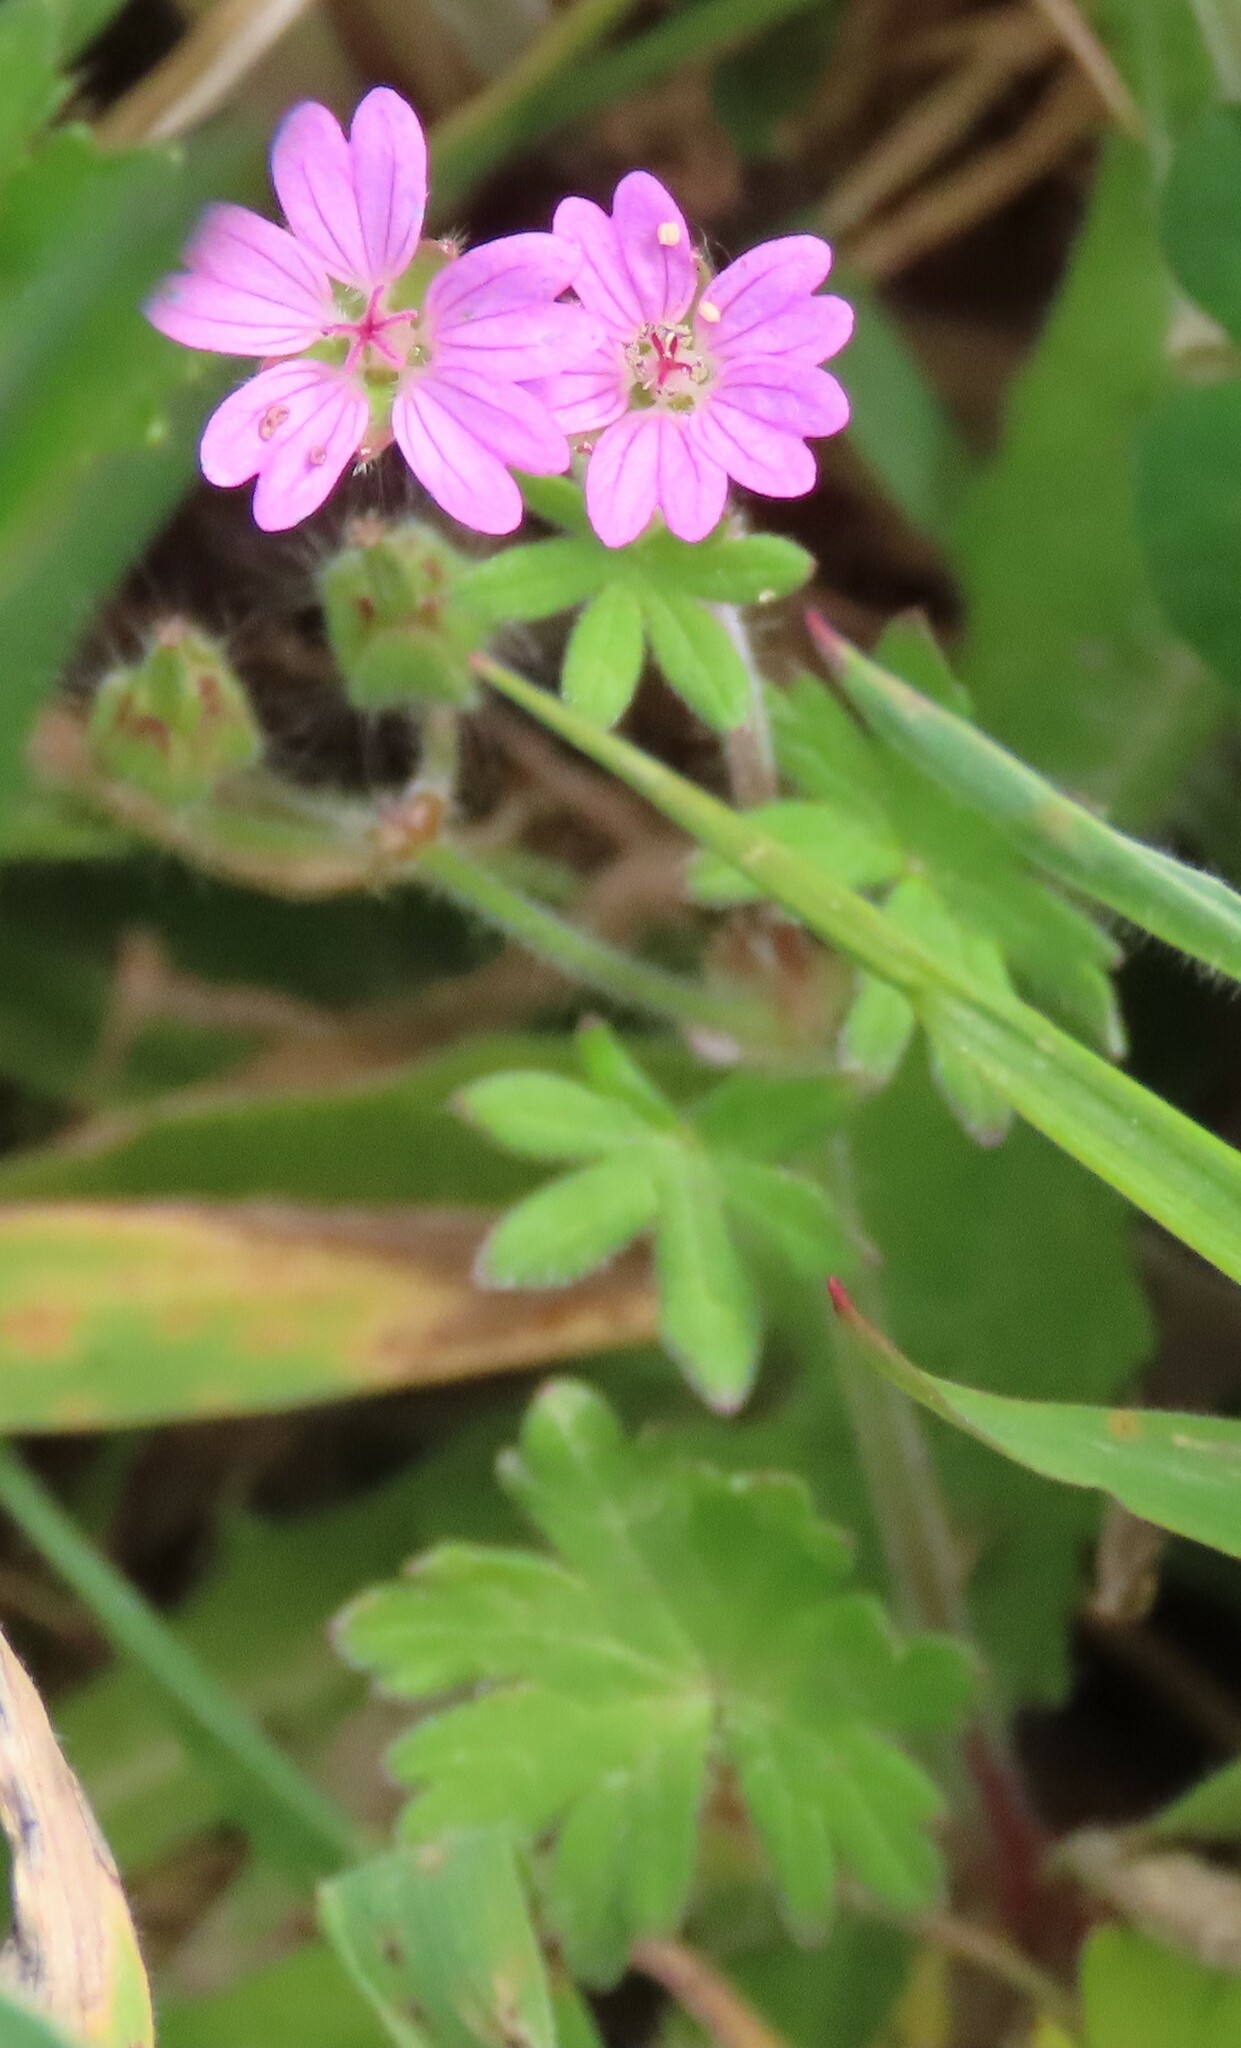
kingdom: Plantae
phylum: Tracheophyta
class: Magnoliopsida
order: Geraniales
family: Geraniaceae
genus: Geranium
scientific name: Geranium molle
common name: Dove's-foot crane's-bill
